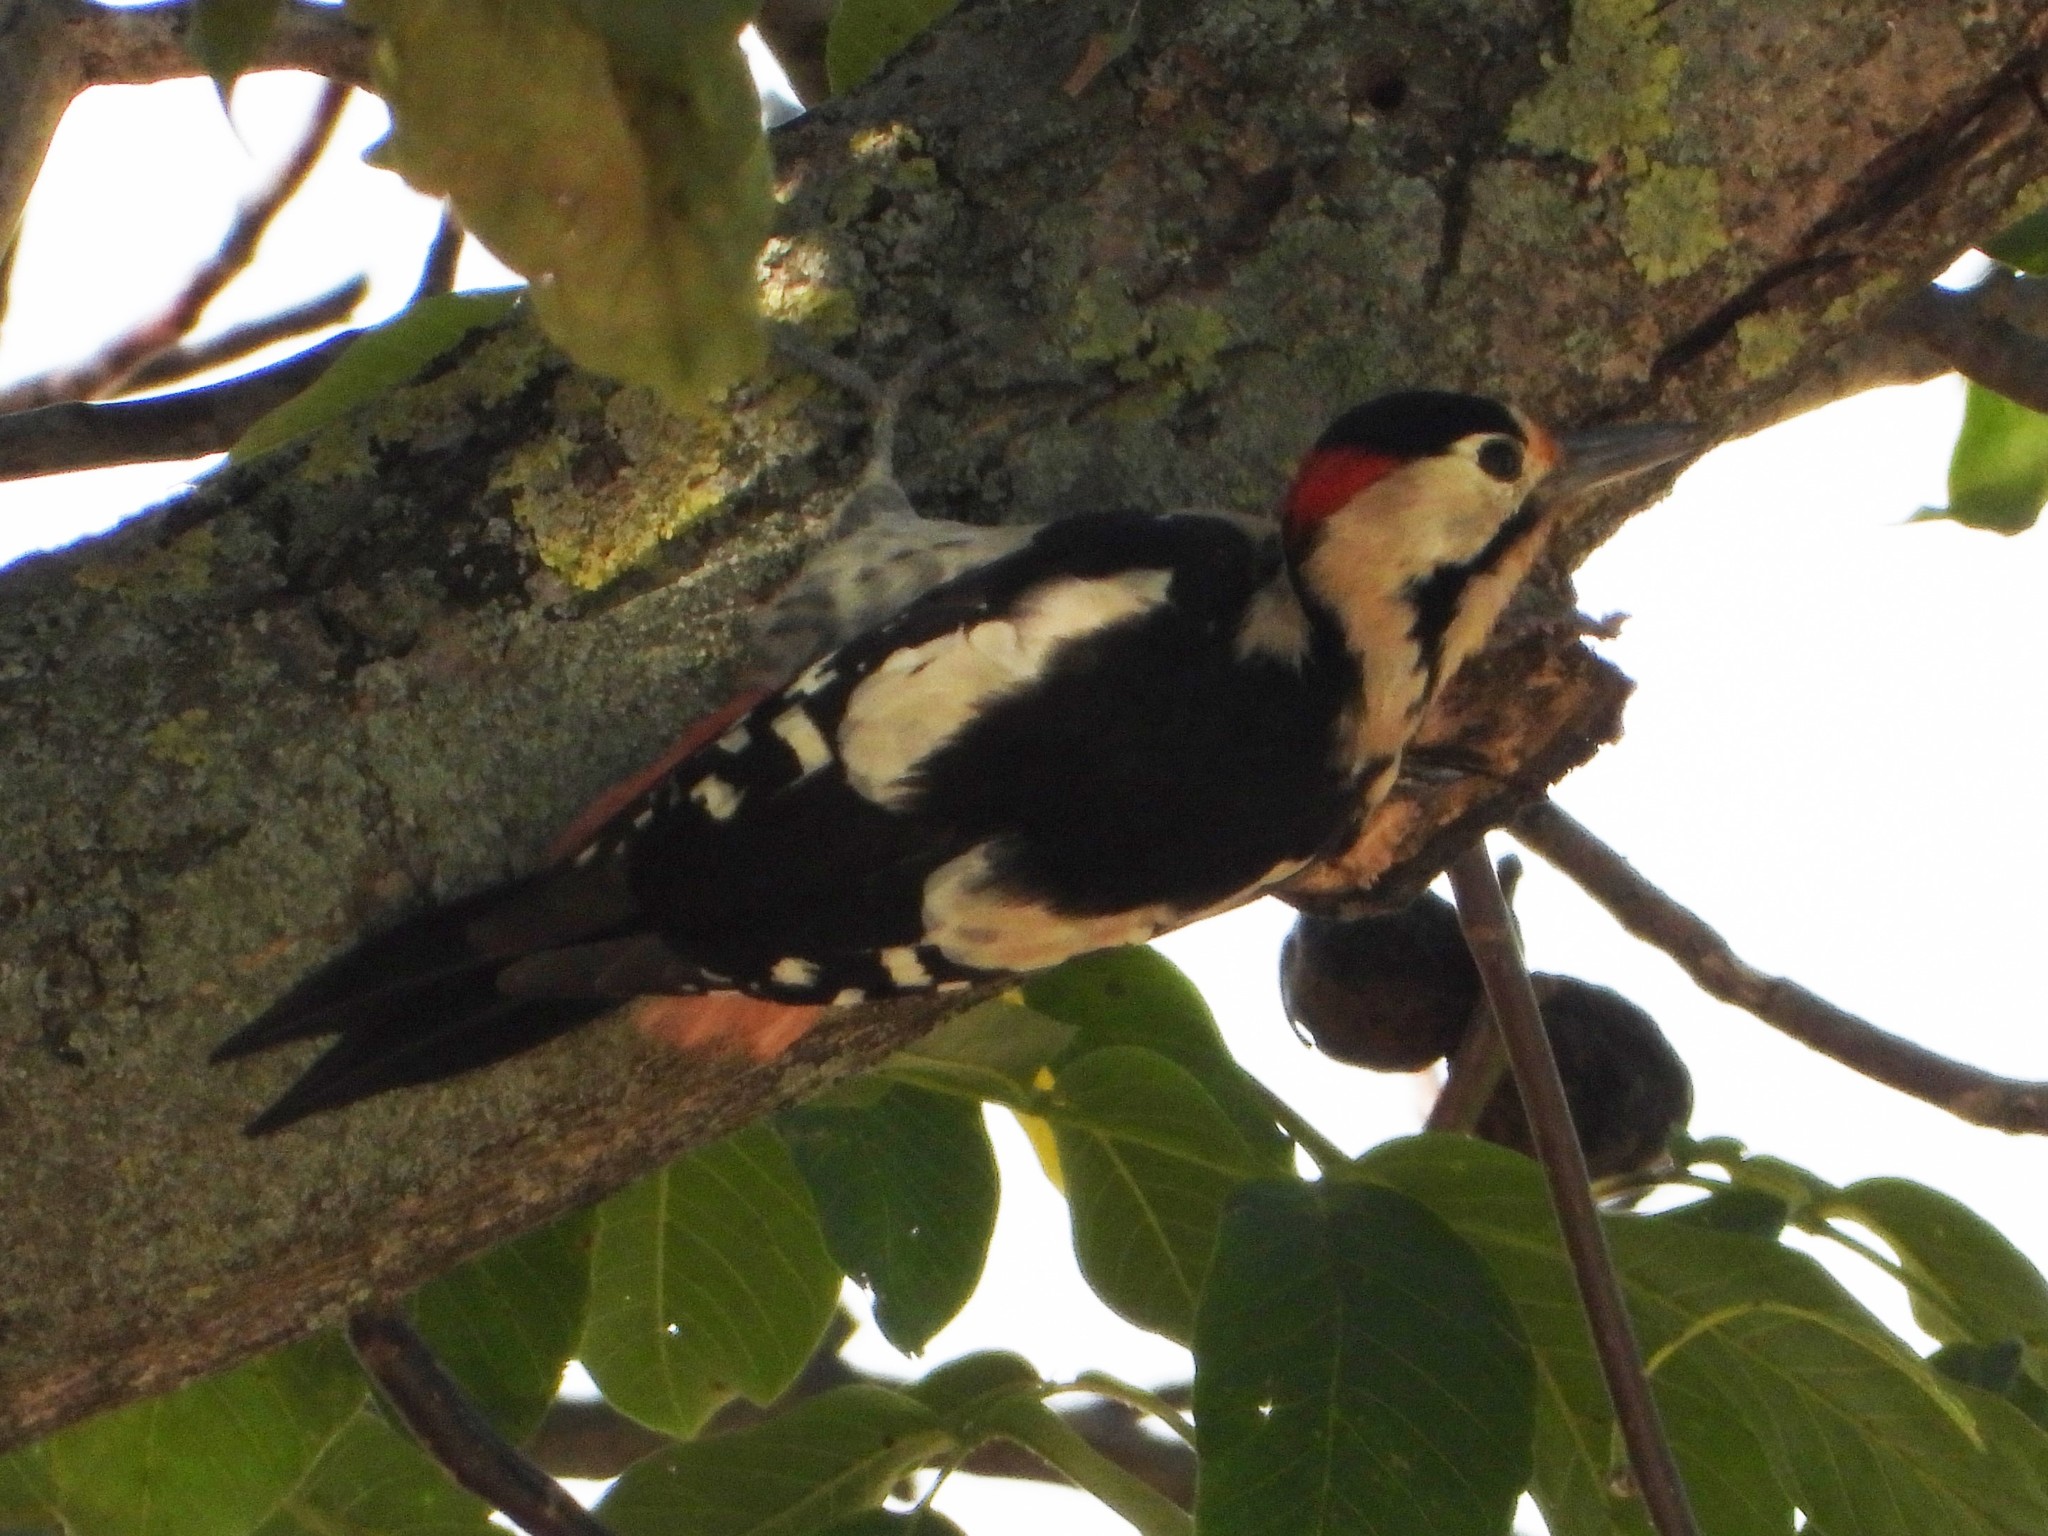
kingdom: Animalia
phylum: Chordata
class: Aves
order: Piciformes
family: Picidae
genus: Dendrocopos
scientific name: Dendrocopos syriacus
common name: Syrian woodpecker
